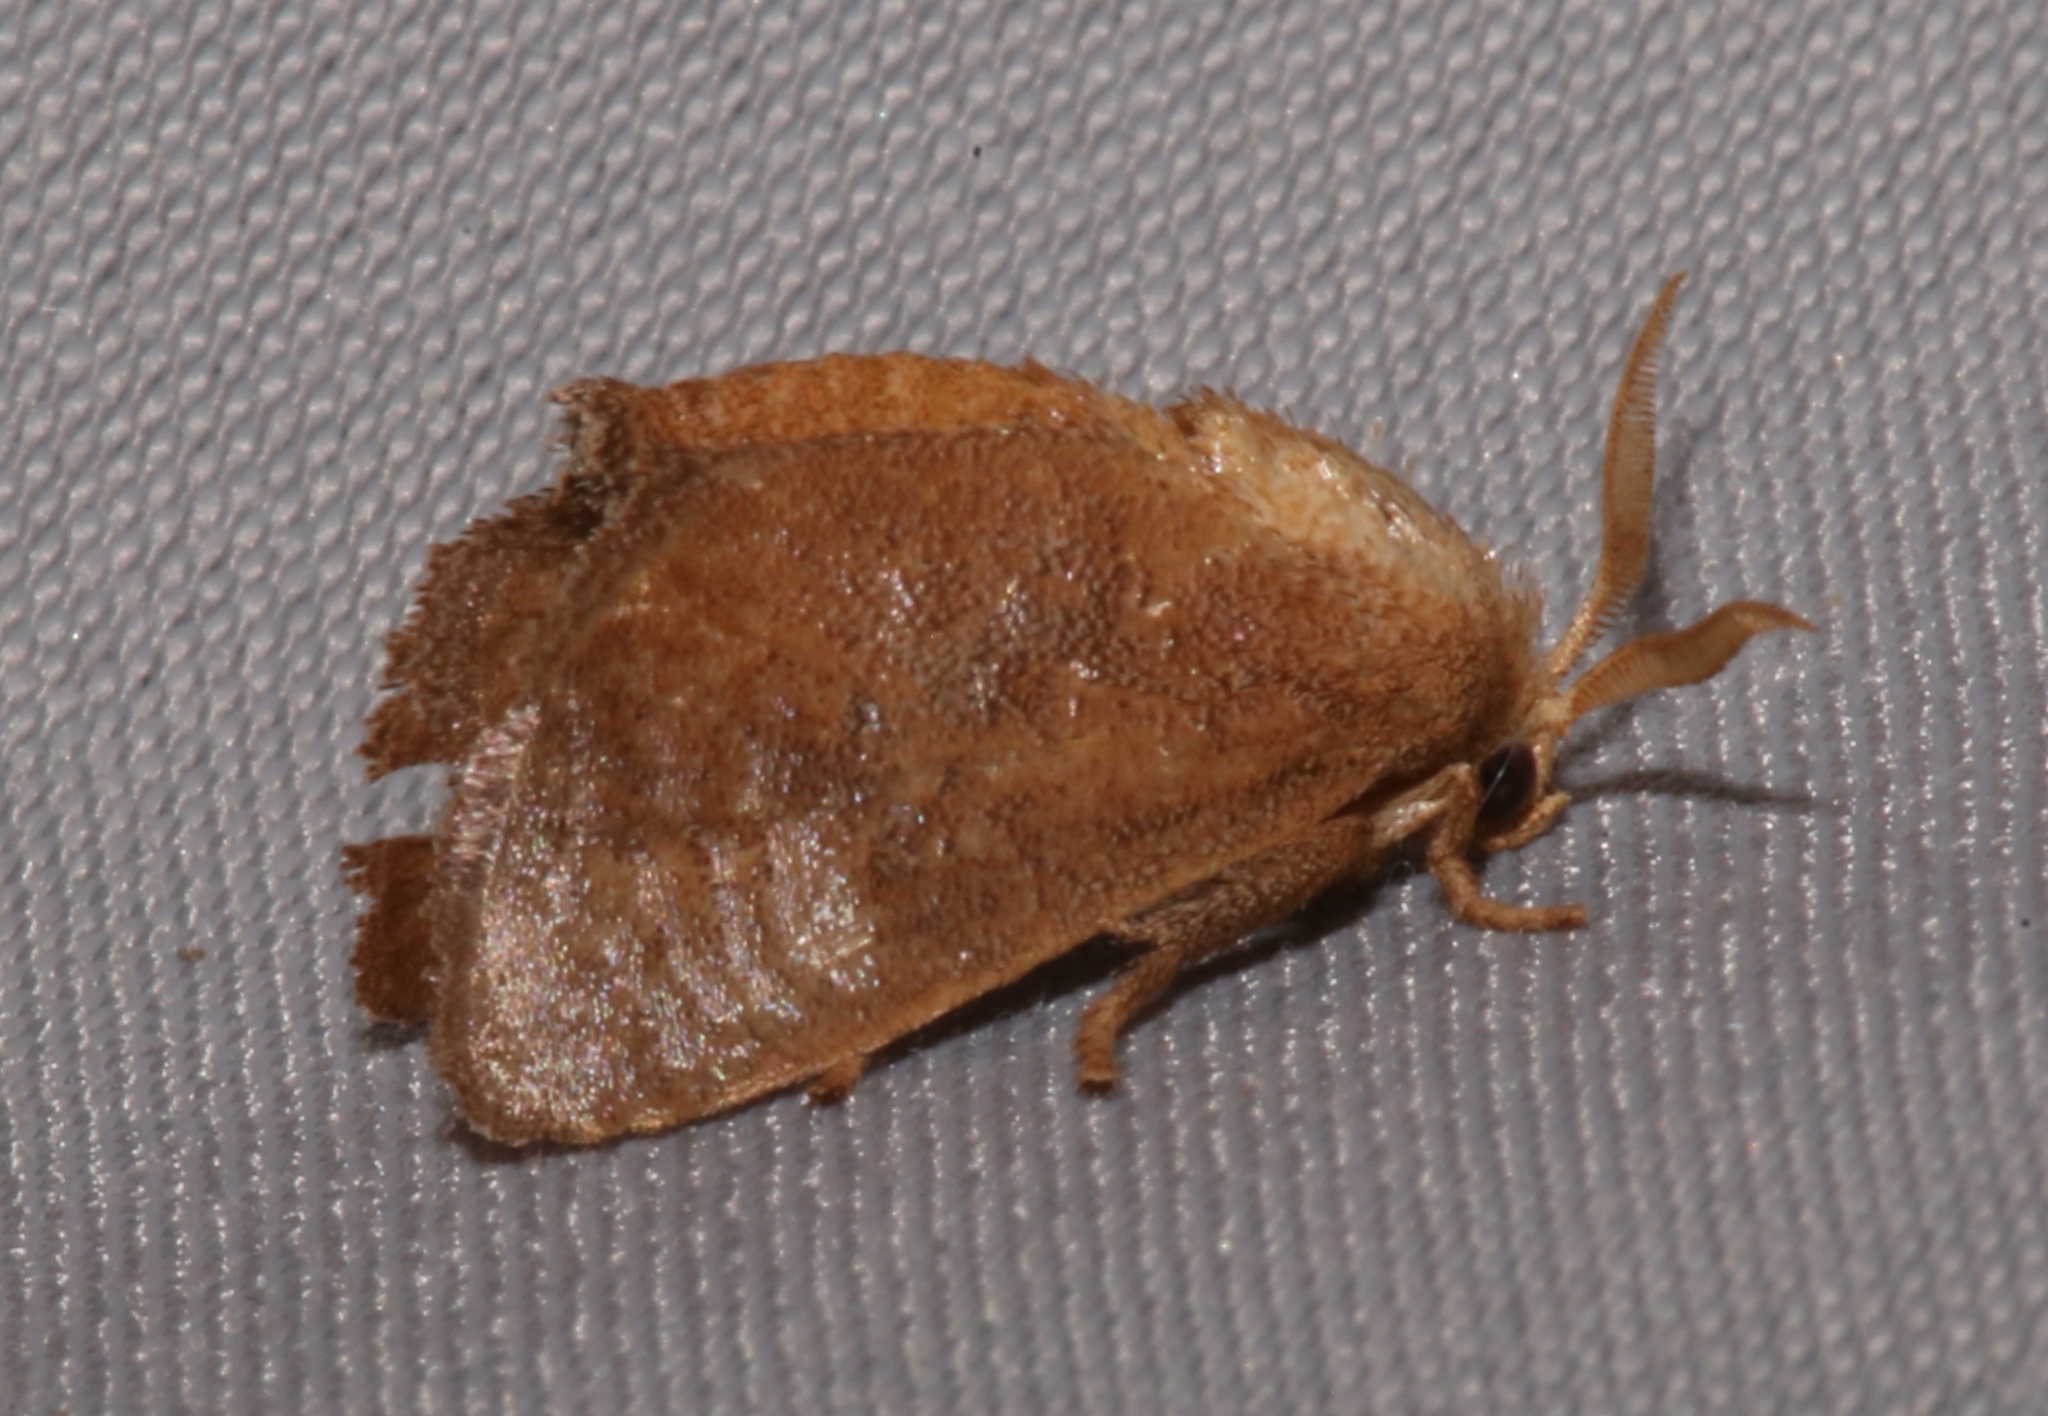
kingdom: Animalia
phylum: Arthropoda
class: Insecta
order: Lepidoptera
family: Limacodidae
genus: Isa
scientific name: Isa textula
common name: Crowned slug moth
